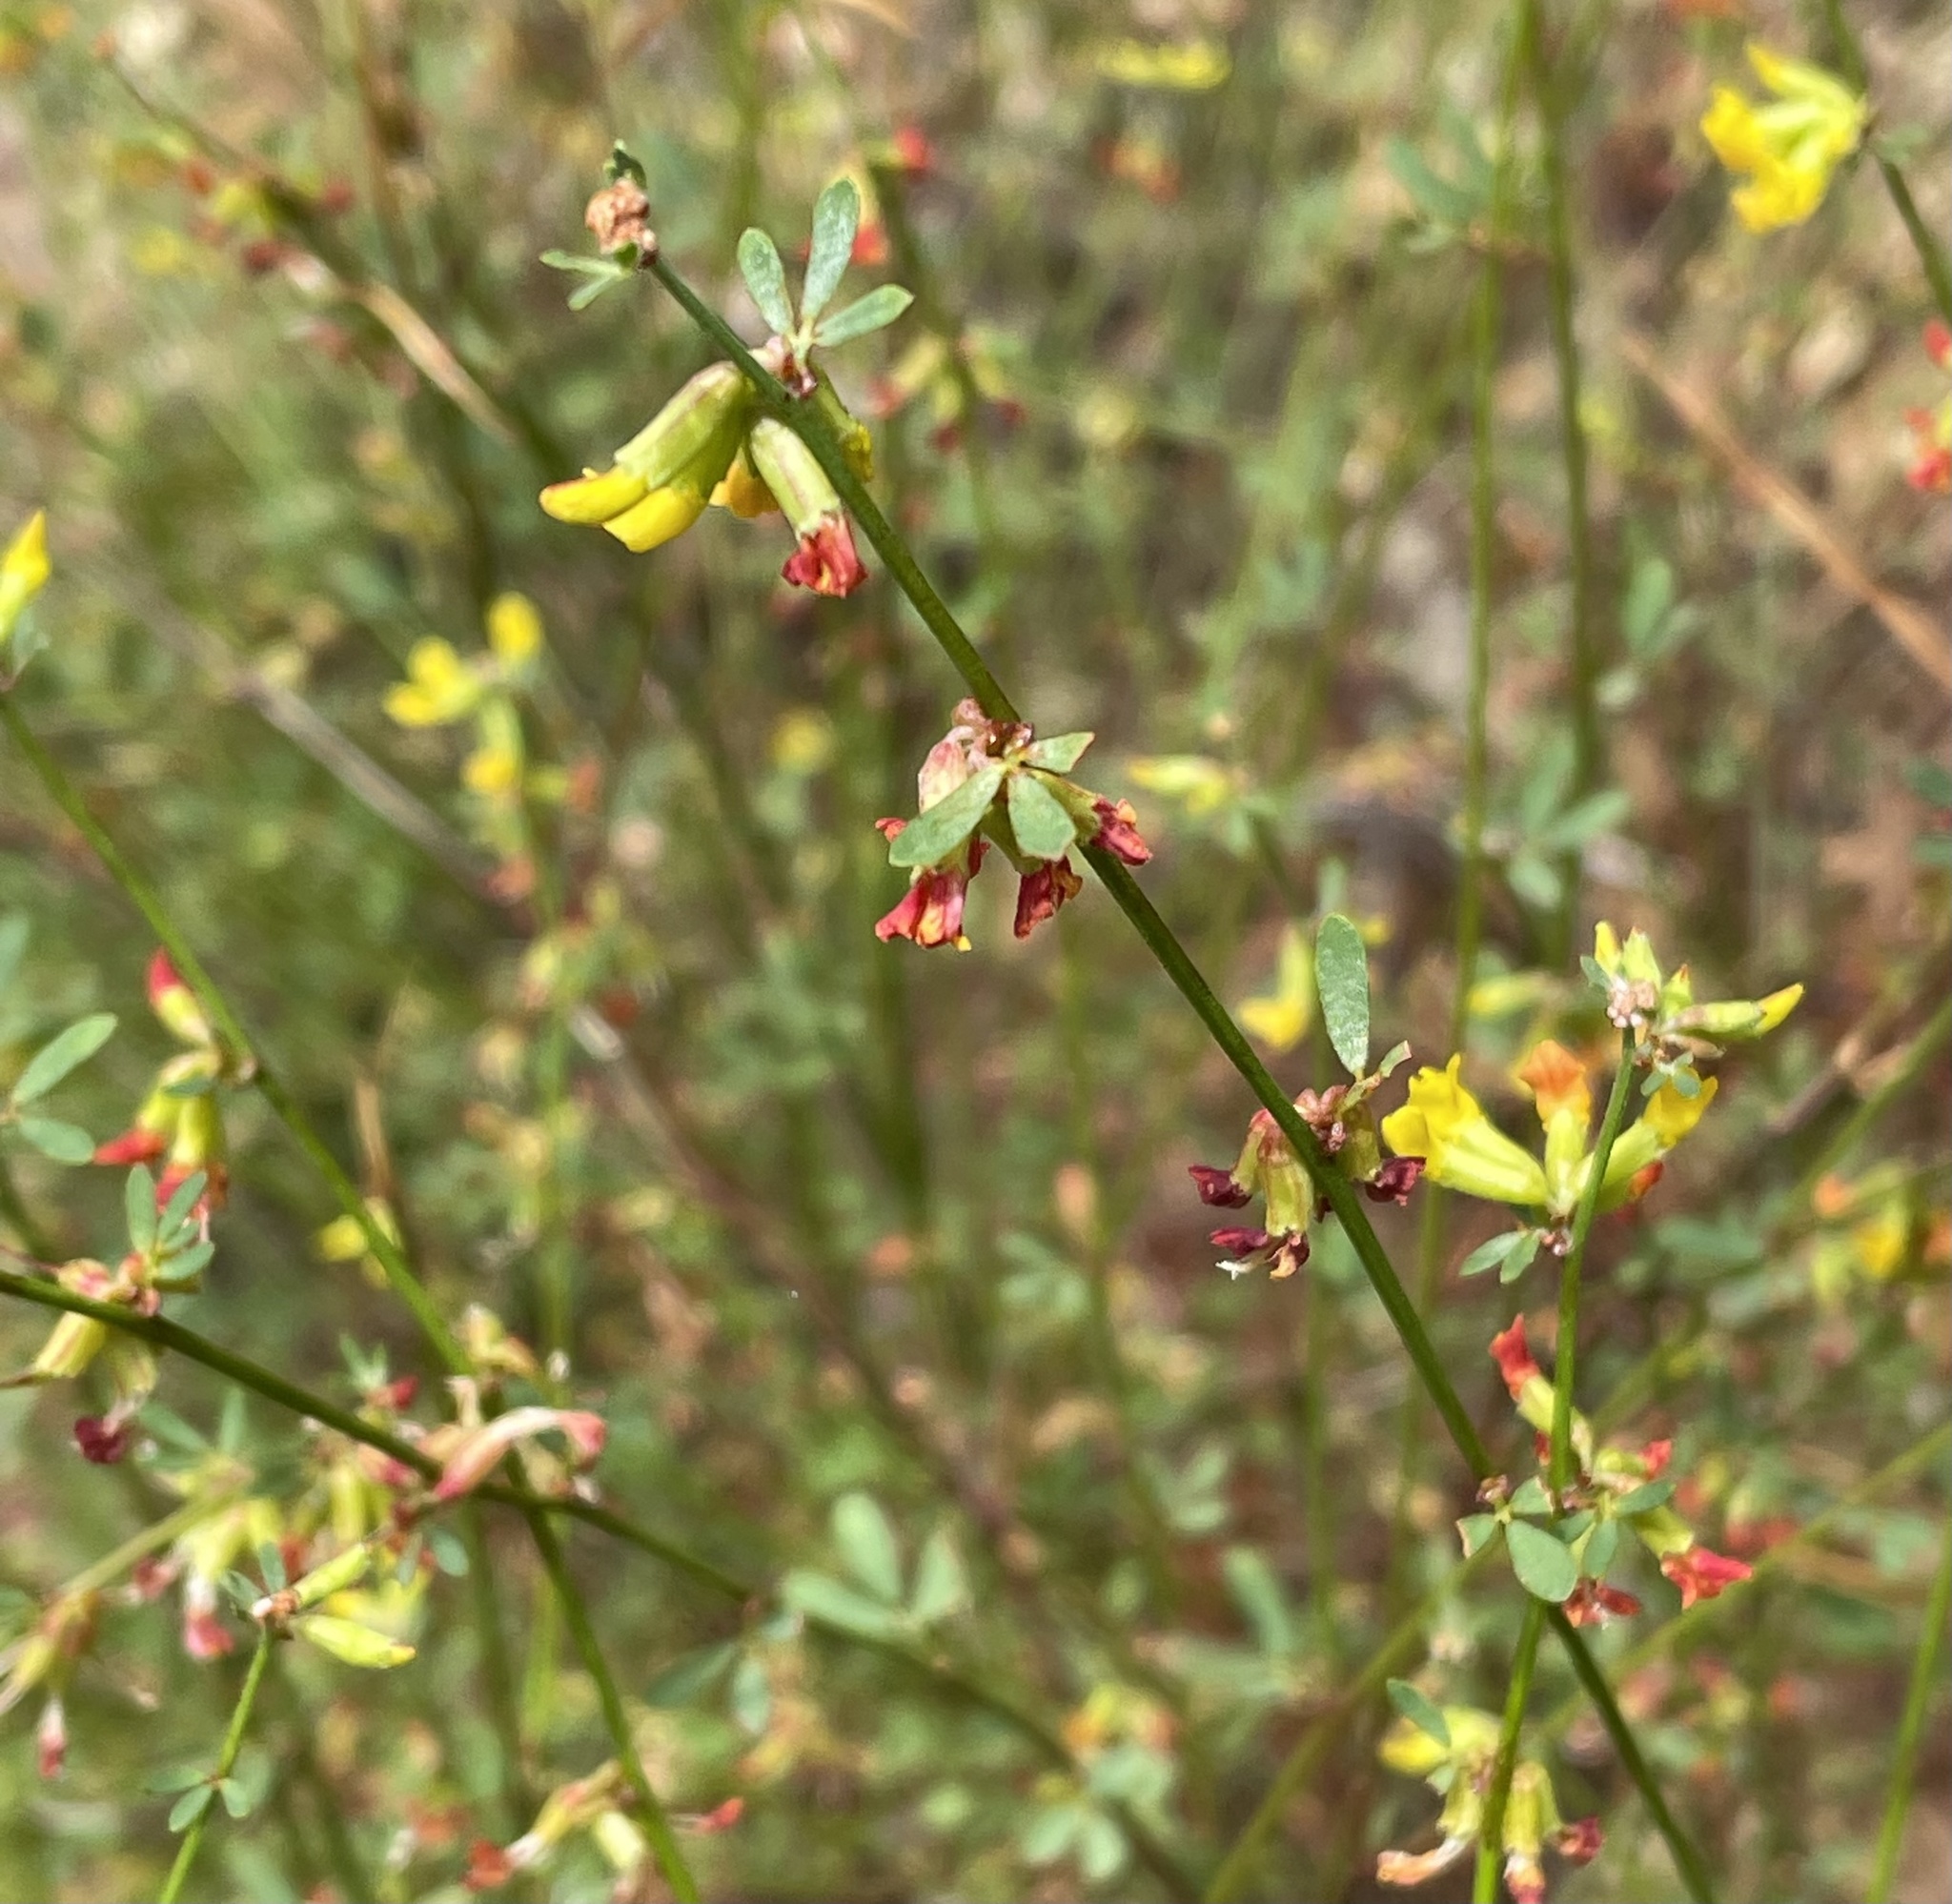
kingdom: Plantae
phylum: Tracheophyta
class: Magnoliopsida
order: Fabales
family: Fabaceae
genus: Acmispon
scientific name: Acmispon junceus
